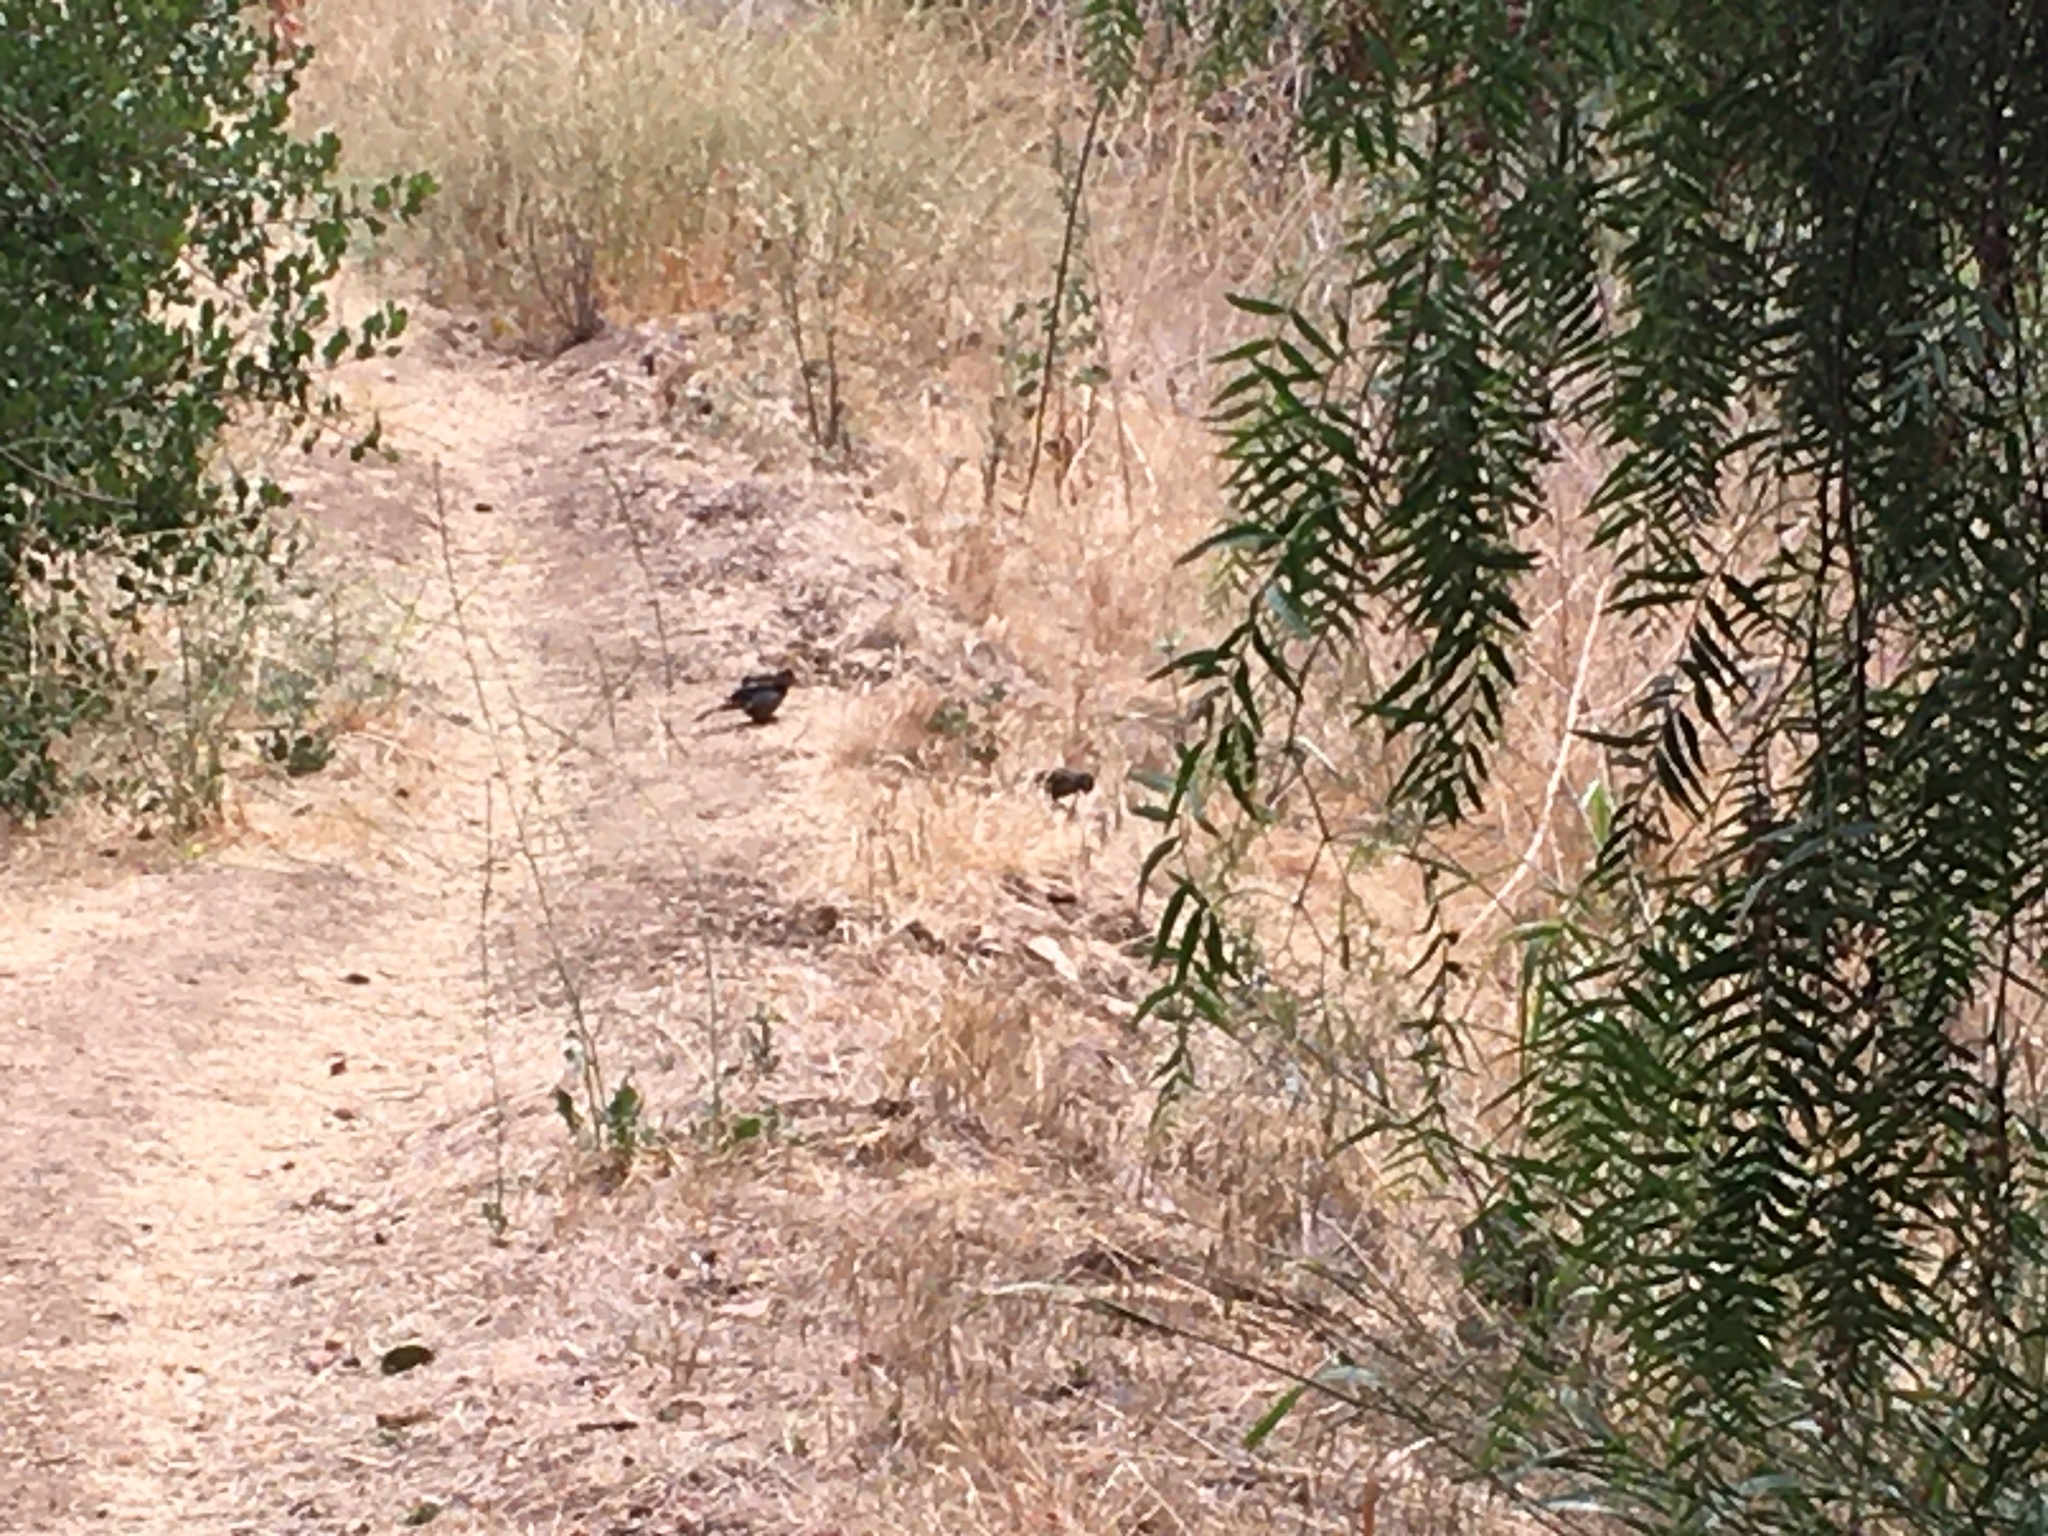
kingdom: Animalia
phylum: Chordata
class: Aves
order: Passeriformes
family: Passerellidae
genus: Melozone
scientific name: Melozone crissalis
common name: California towhee
